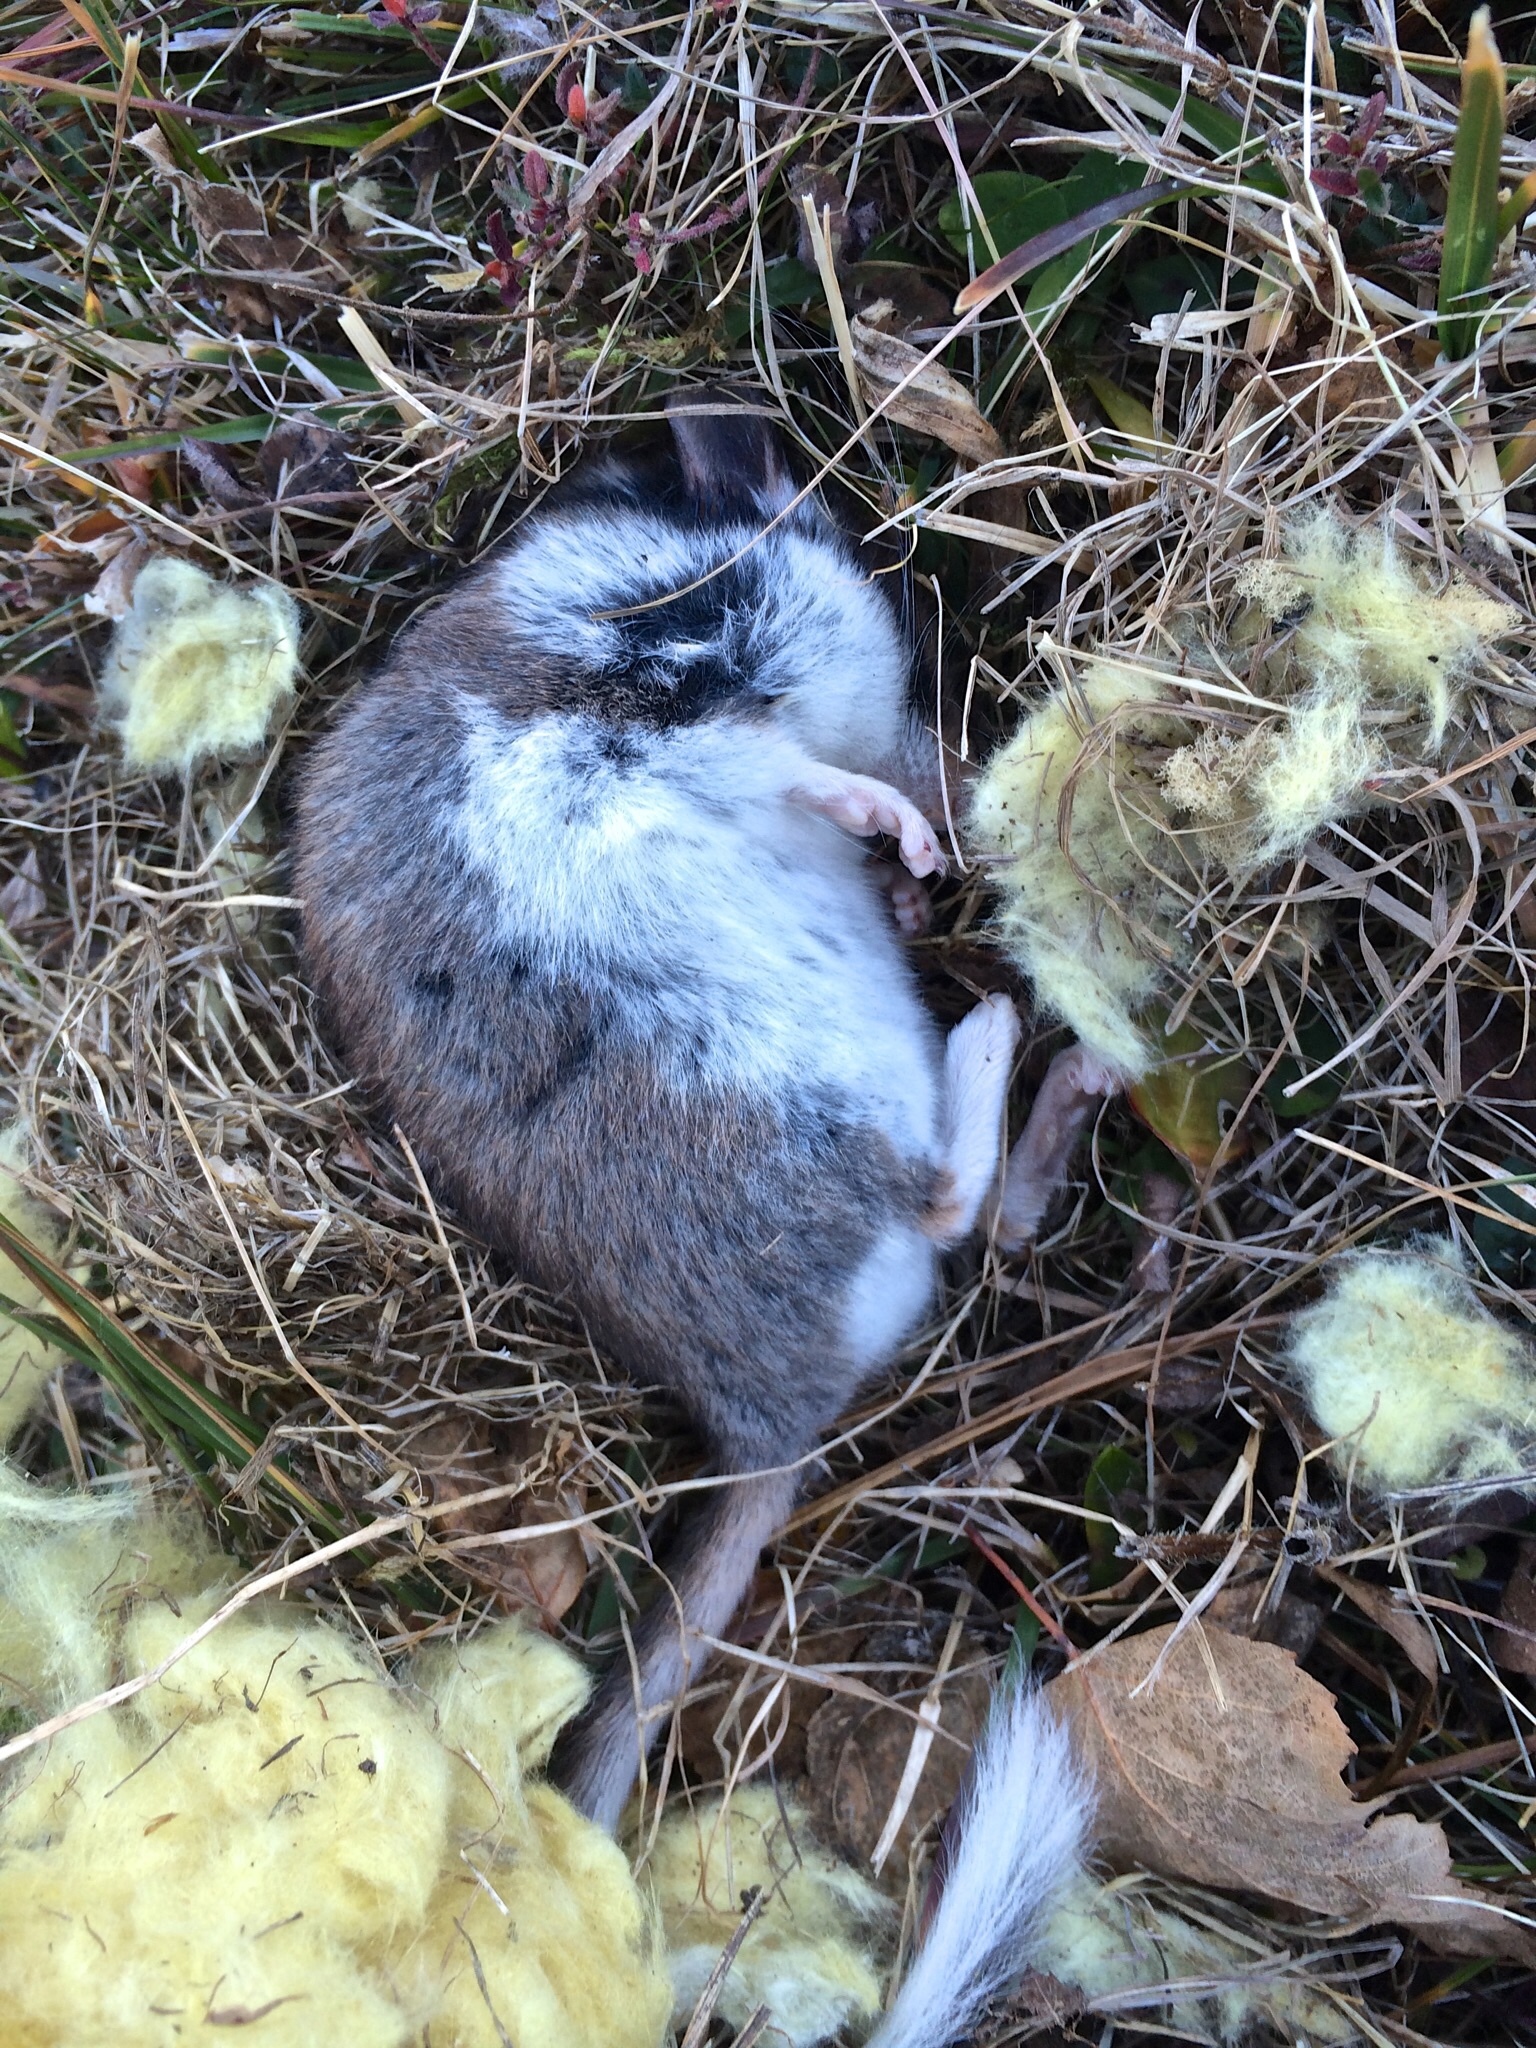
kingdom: Animalia
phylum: Chordata
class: Mammalia
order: Rodentia
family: Gliridae
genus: Eliomys
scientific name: Eliomys quercinus
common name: Garden dormouse
